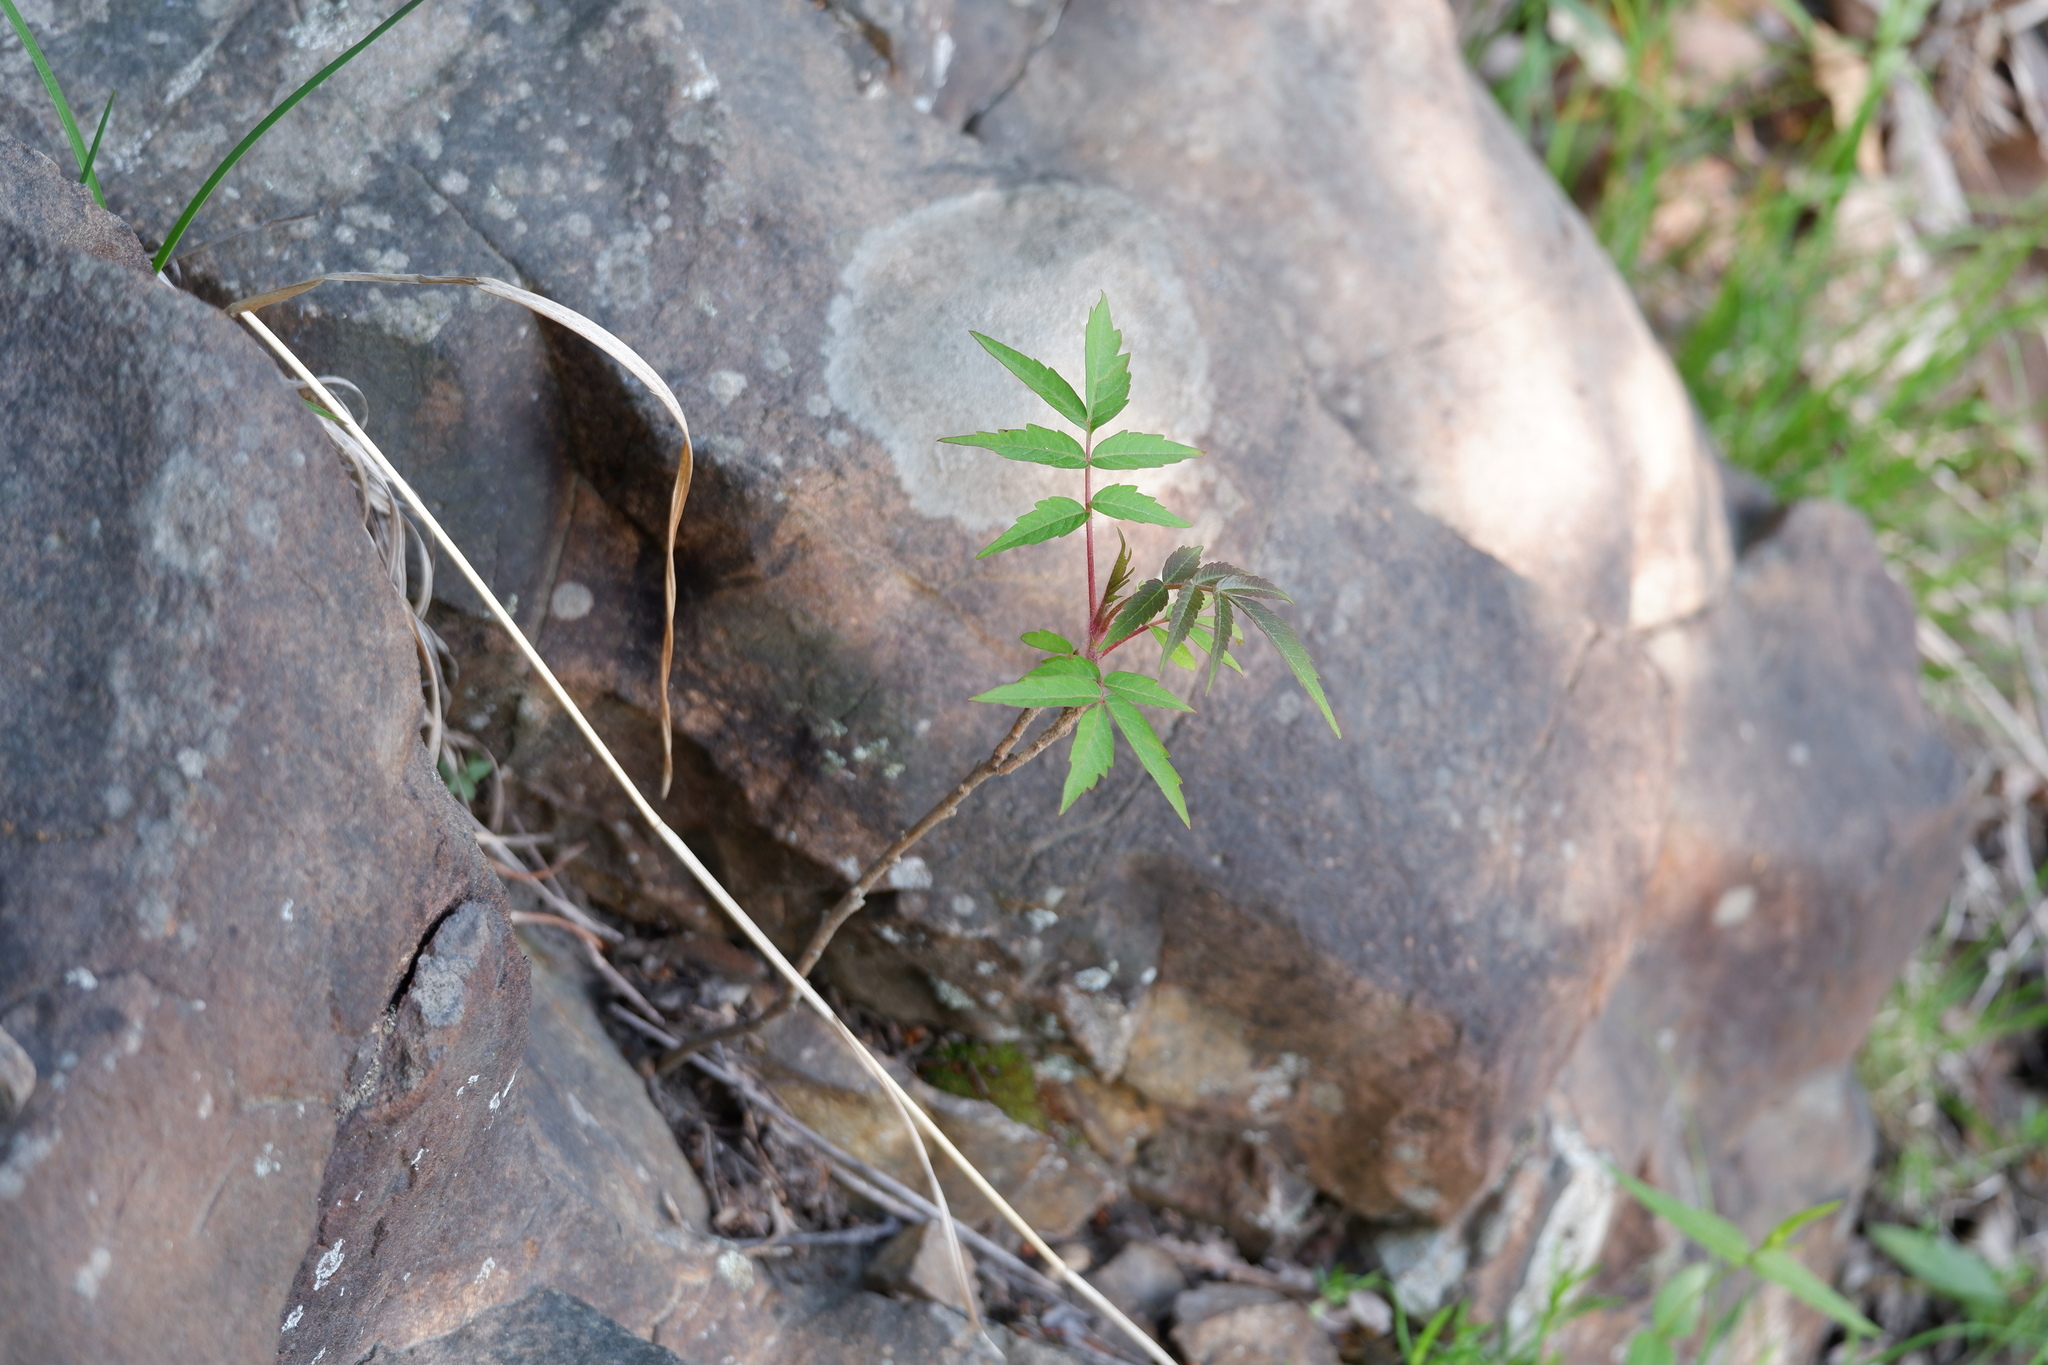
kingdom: Plantae
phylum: Tracheophyta
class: Magnoliopsida
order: Sapindales
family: Anacardiaceae
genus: Rhus
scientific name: Rhus typhina
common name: Staghorn sumac
